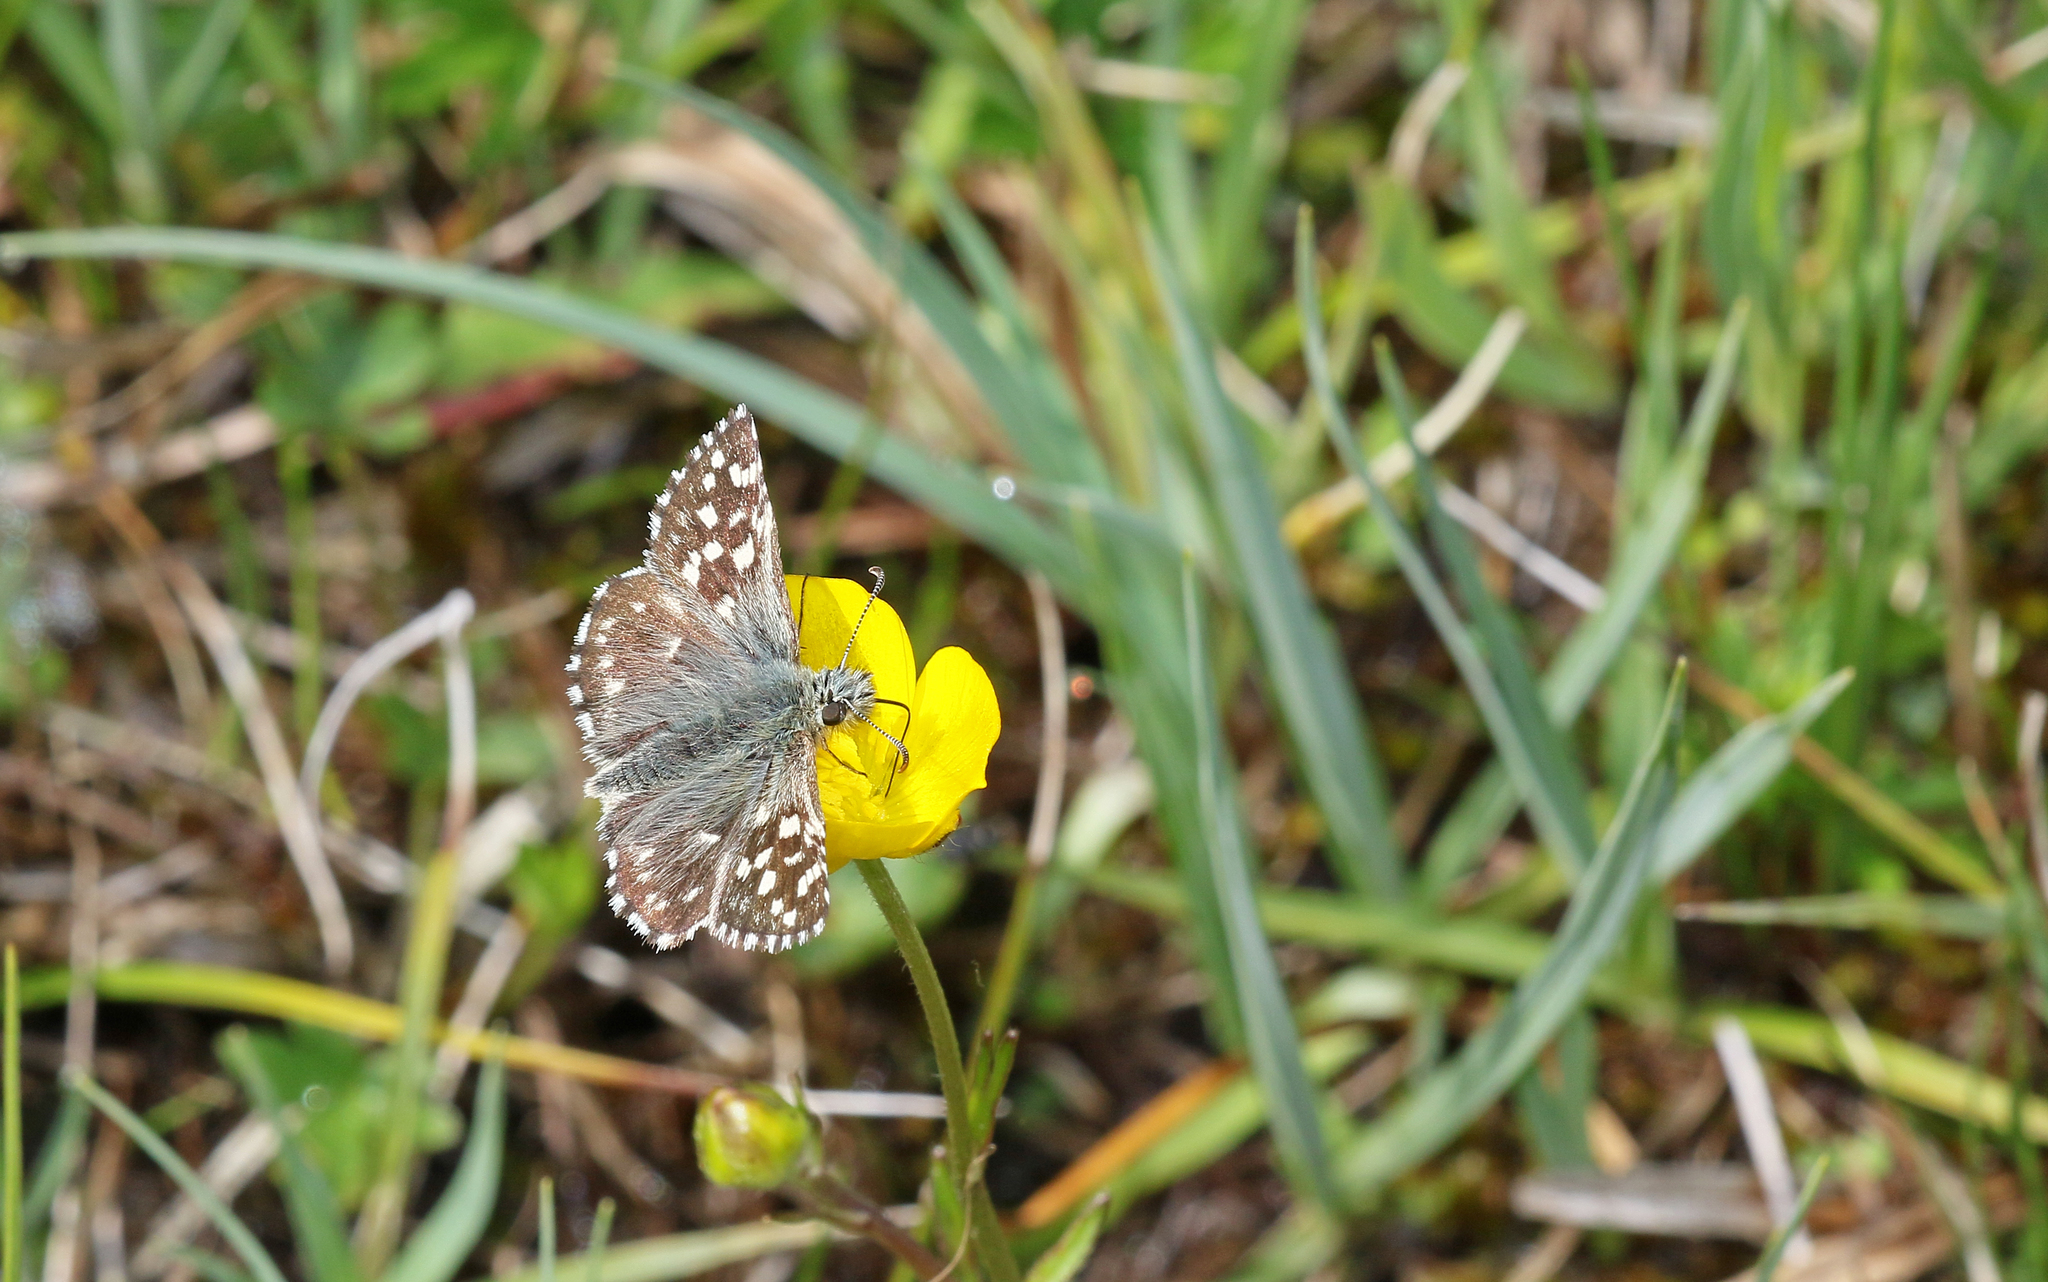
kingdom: Animalia
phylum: Arthropoda
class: Insecta
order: Lepidoptera
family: Hesperiidae
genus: Pyrgus
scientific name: Pyrgus malvae
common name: Grizzled skipper
